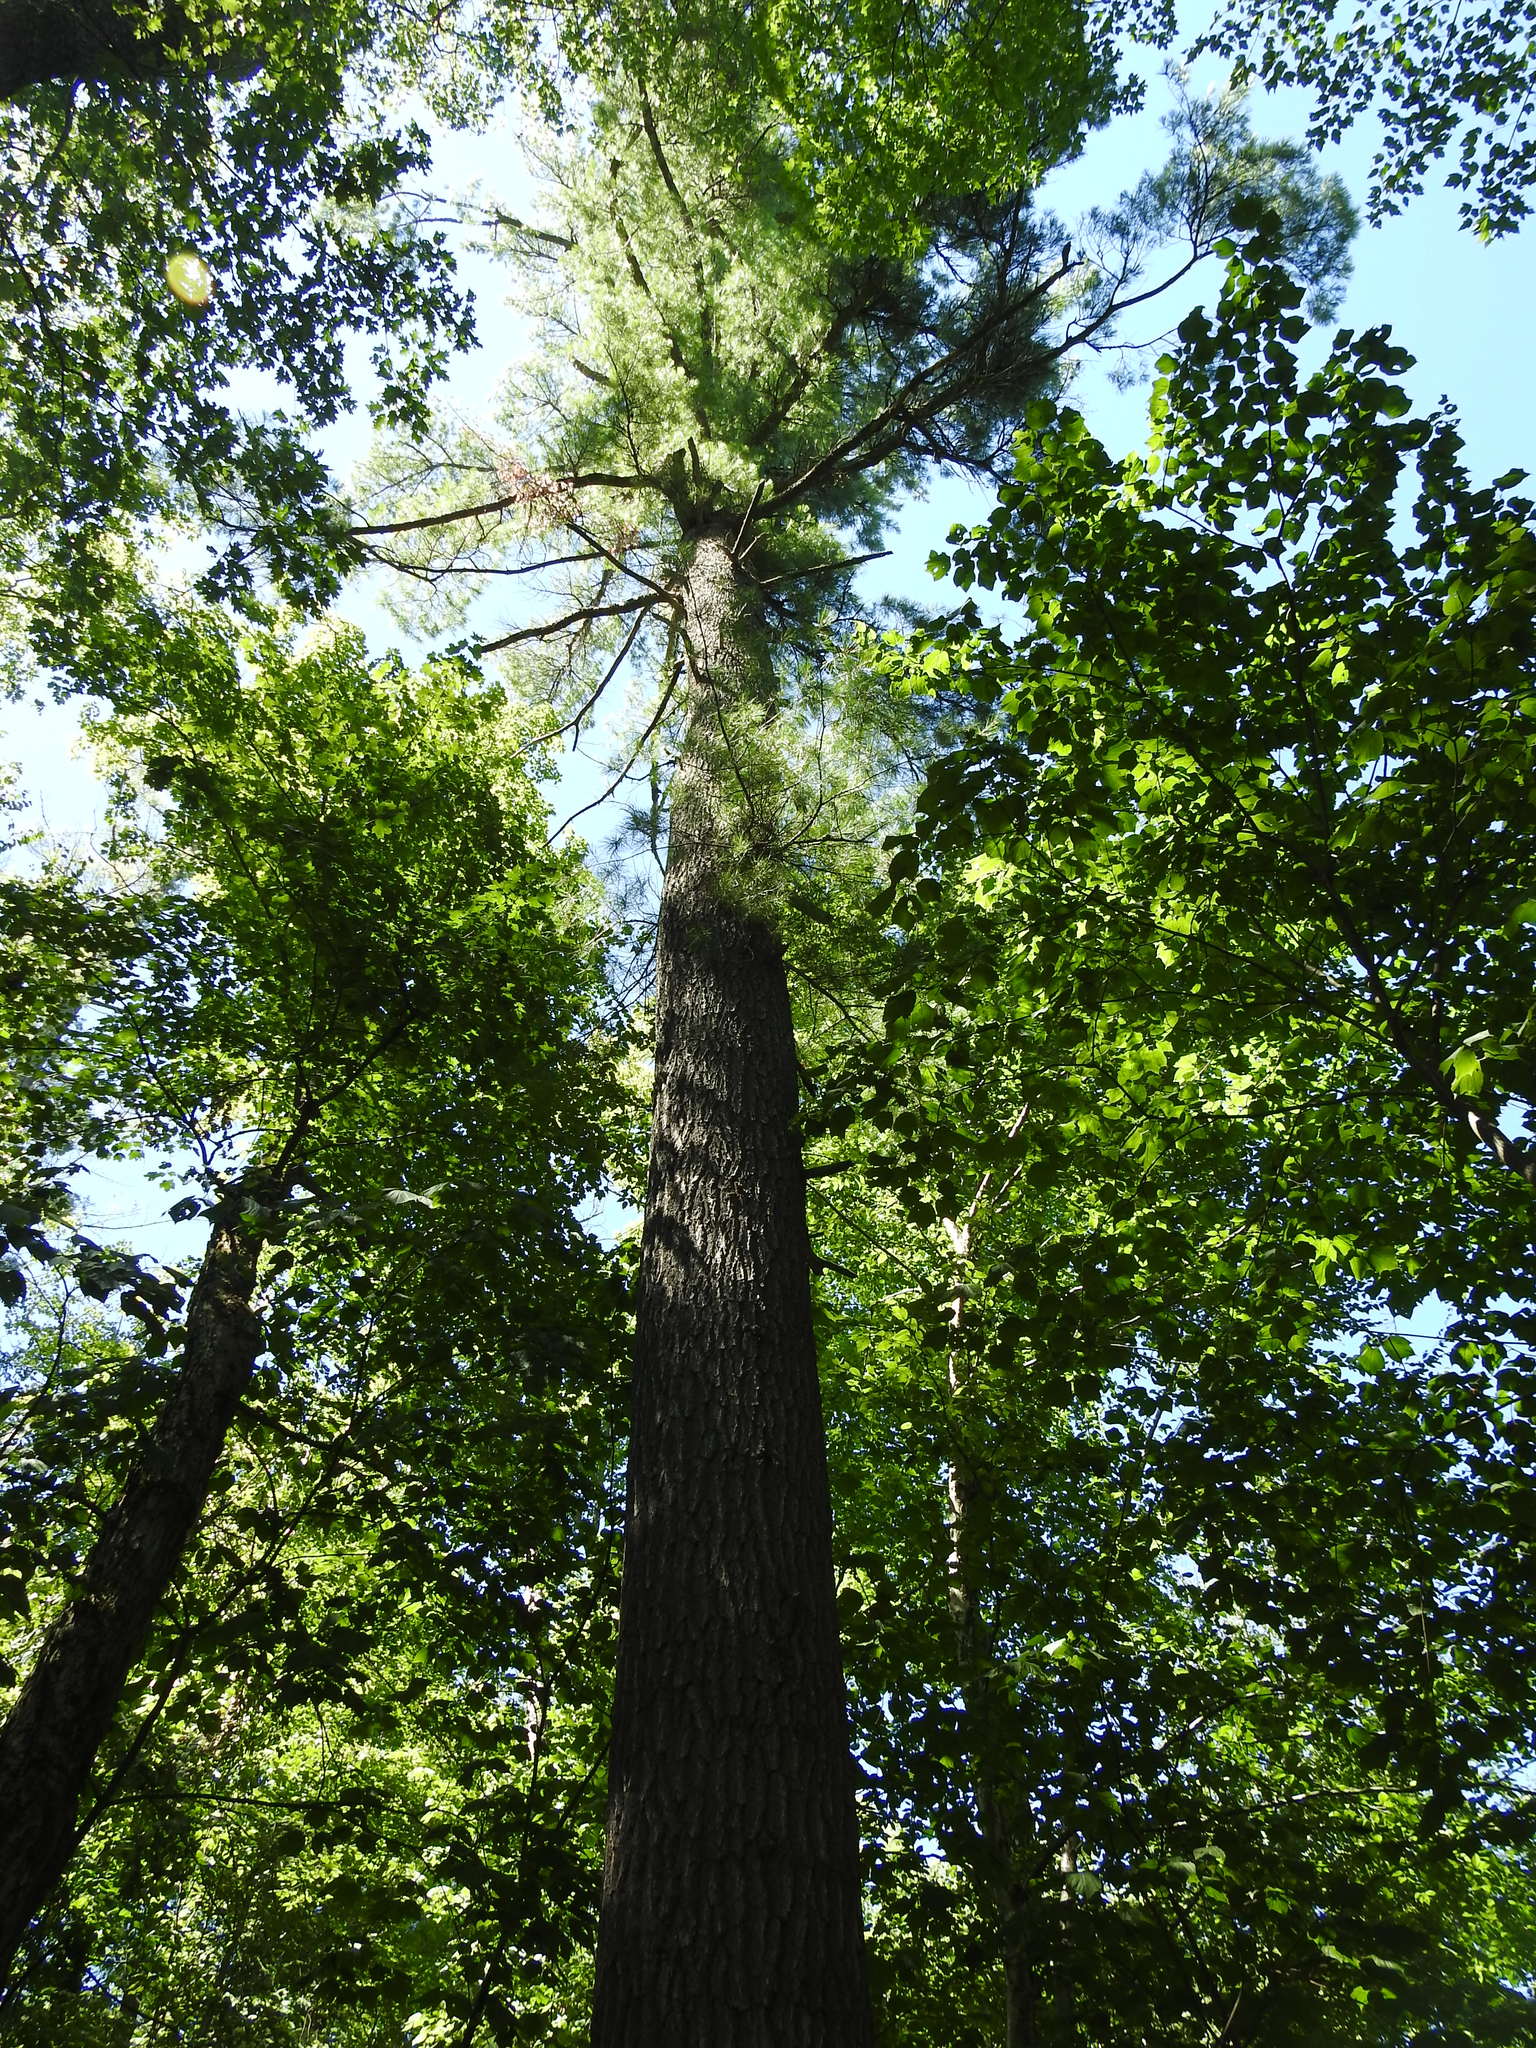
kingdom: Plantae
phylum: Tracheophyta
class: Pinopsida
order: Pinales
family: Pinaceae
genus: Pinus
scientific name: Pinus strobus
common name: Weymouth pine
